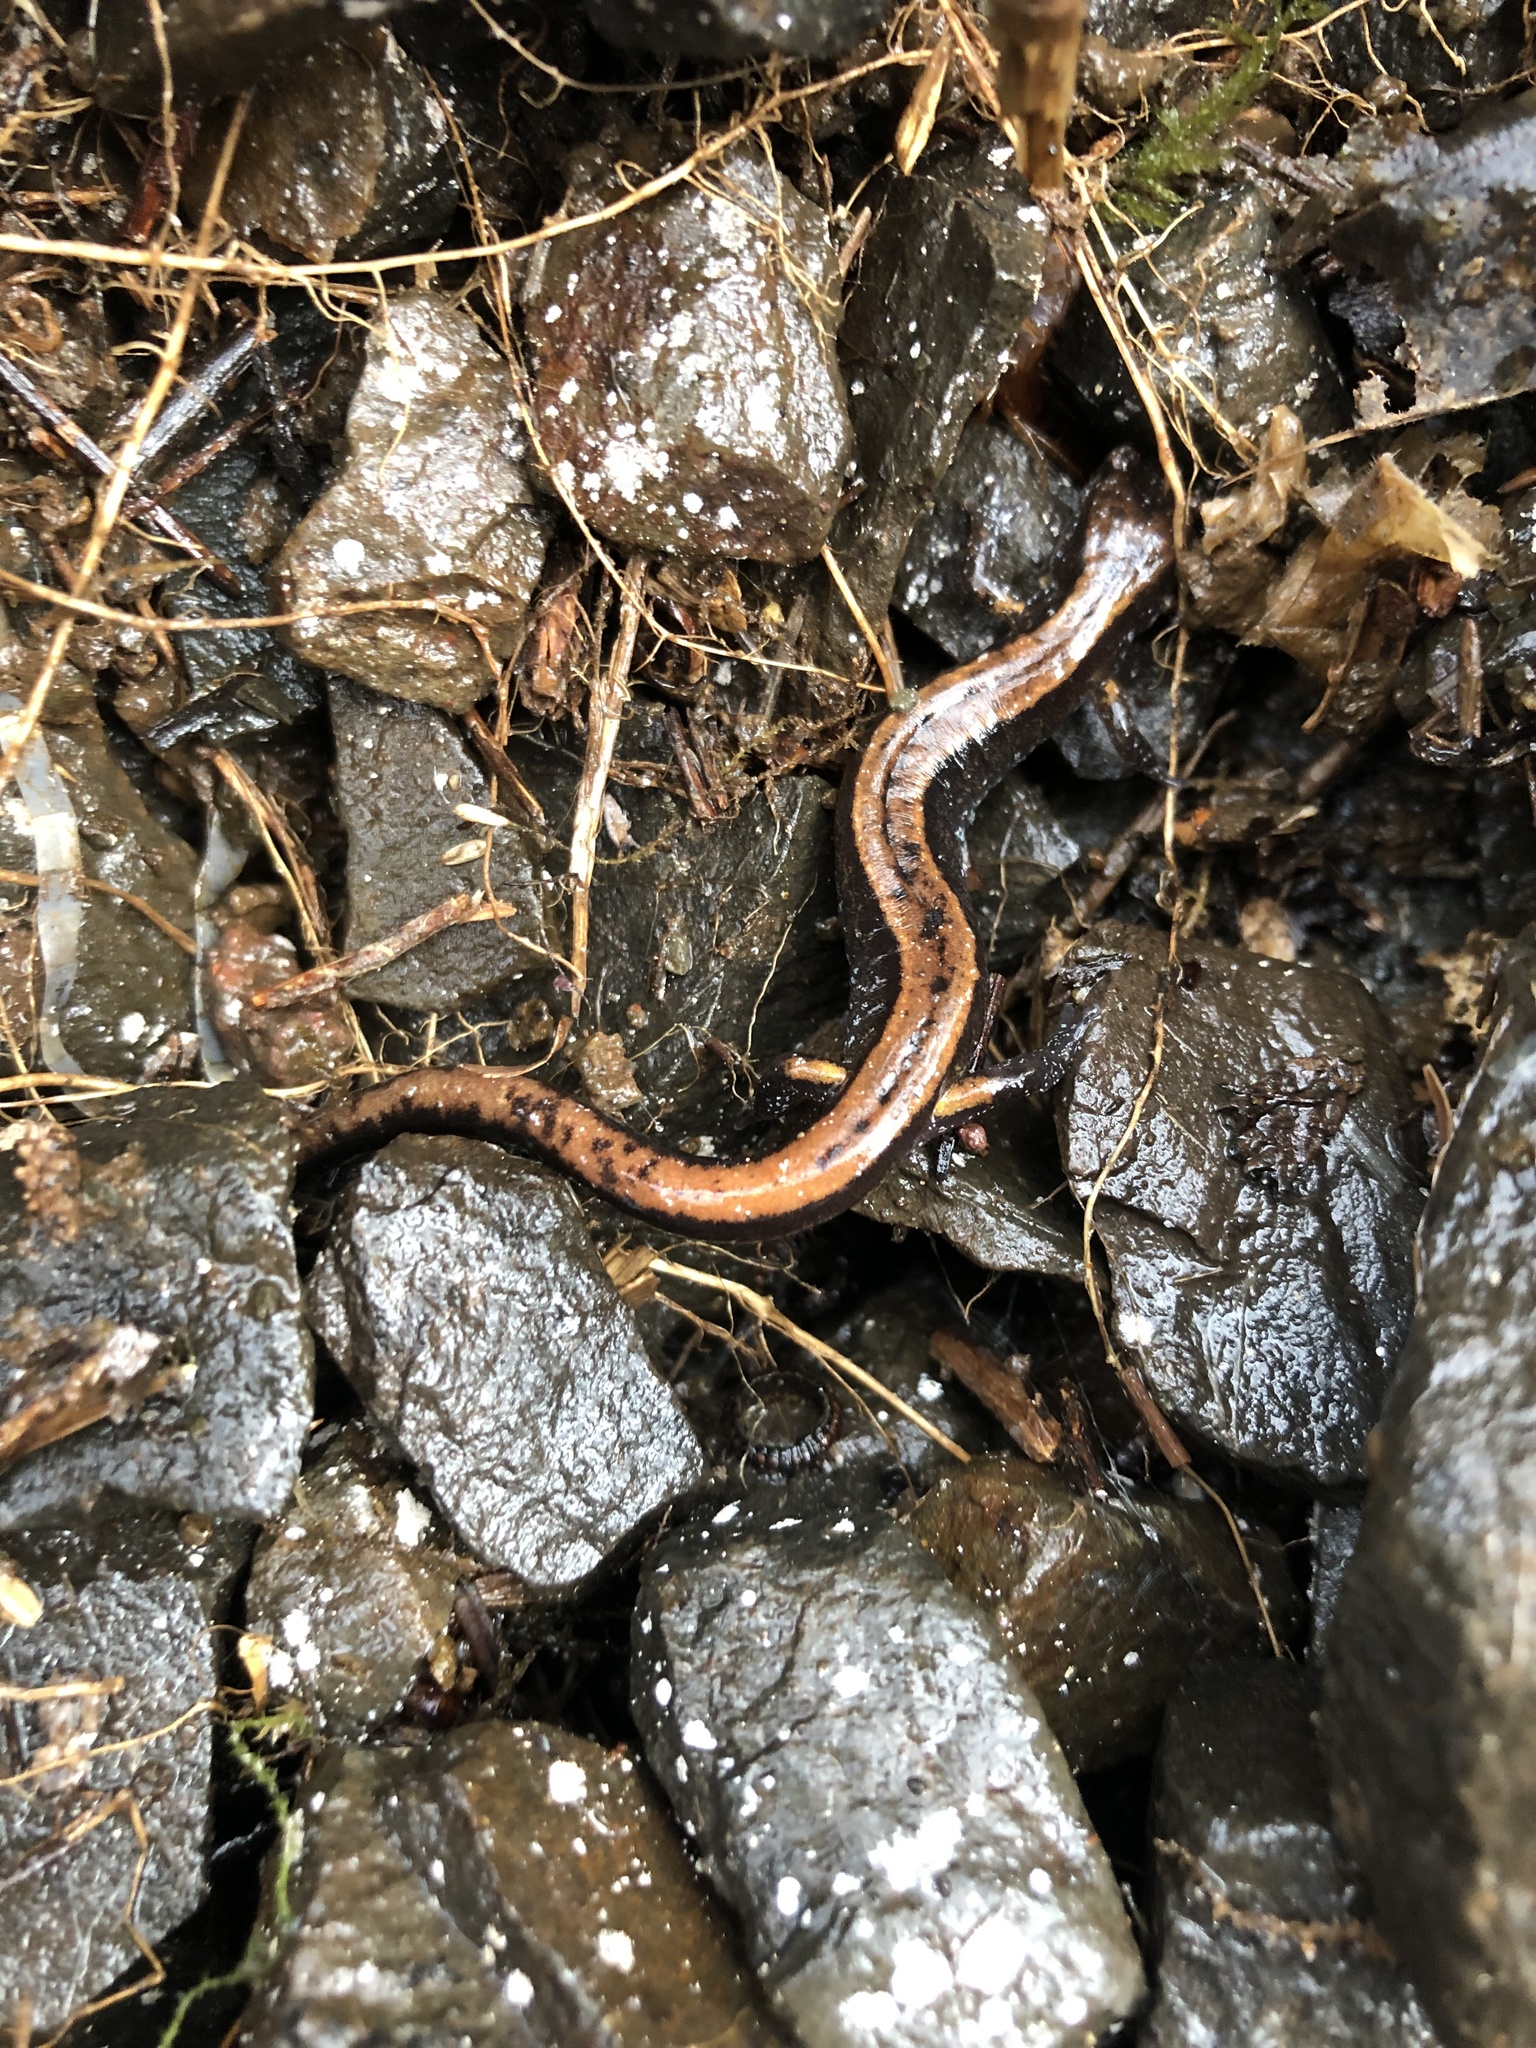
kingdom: Animalia
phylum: Chordata
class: Amphibia
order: Caudata
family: Plethodontidae
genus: Plethodon
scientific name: Plethodon vehiculum
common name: Western red-backed salamander
